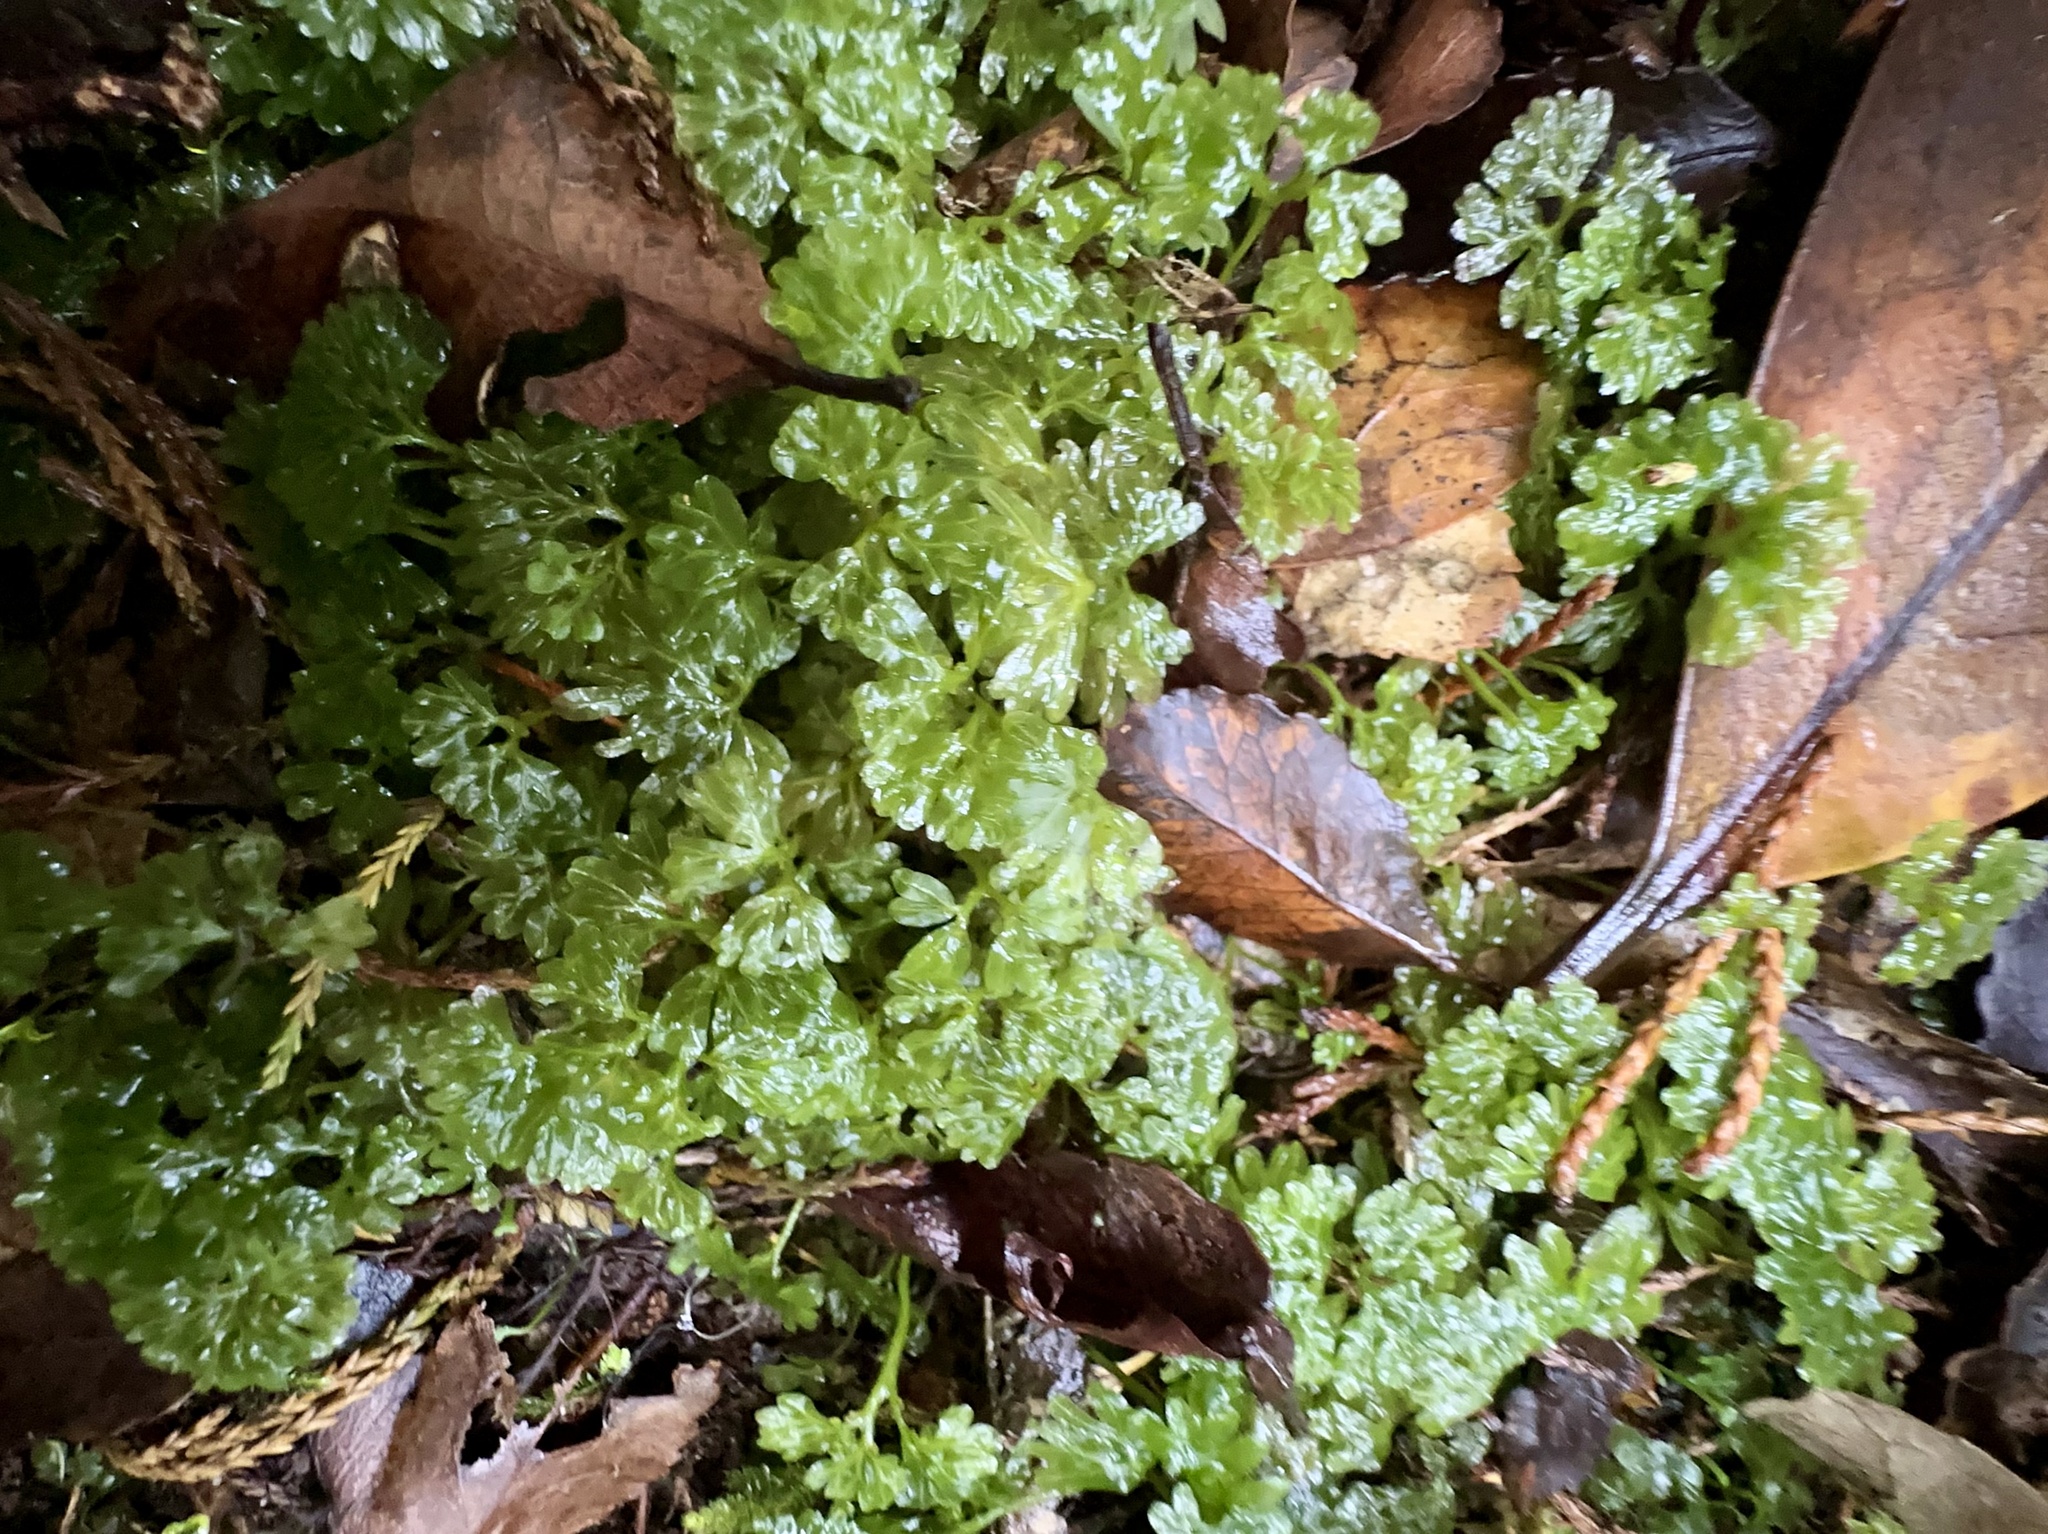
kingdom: Plantae
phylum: Marchantiophyta
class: Jungermanniopsida
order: Pallaviciniales
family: Hymenophytaceae
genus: Hymenophyton
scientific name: Hymenophyton flabellatum
